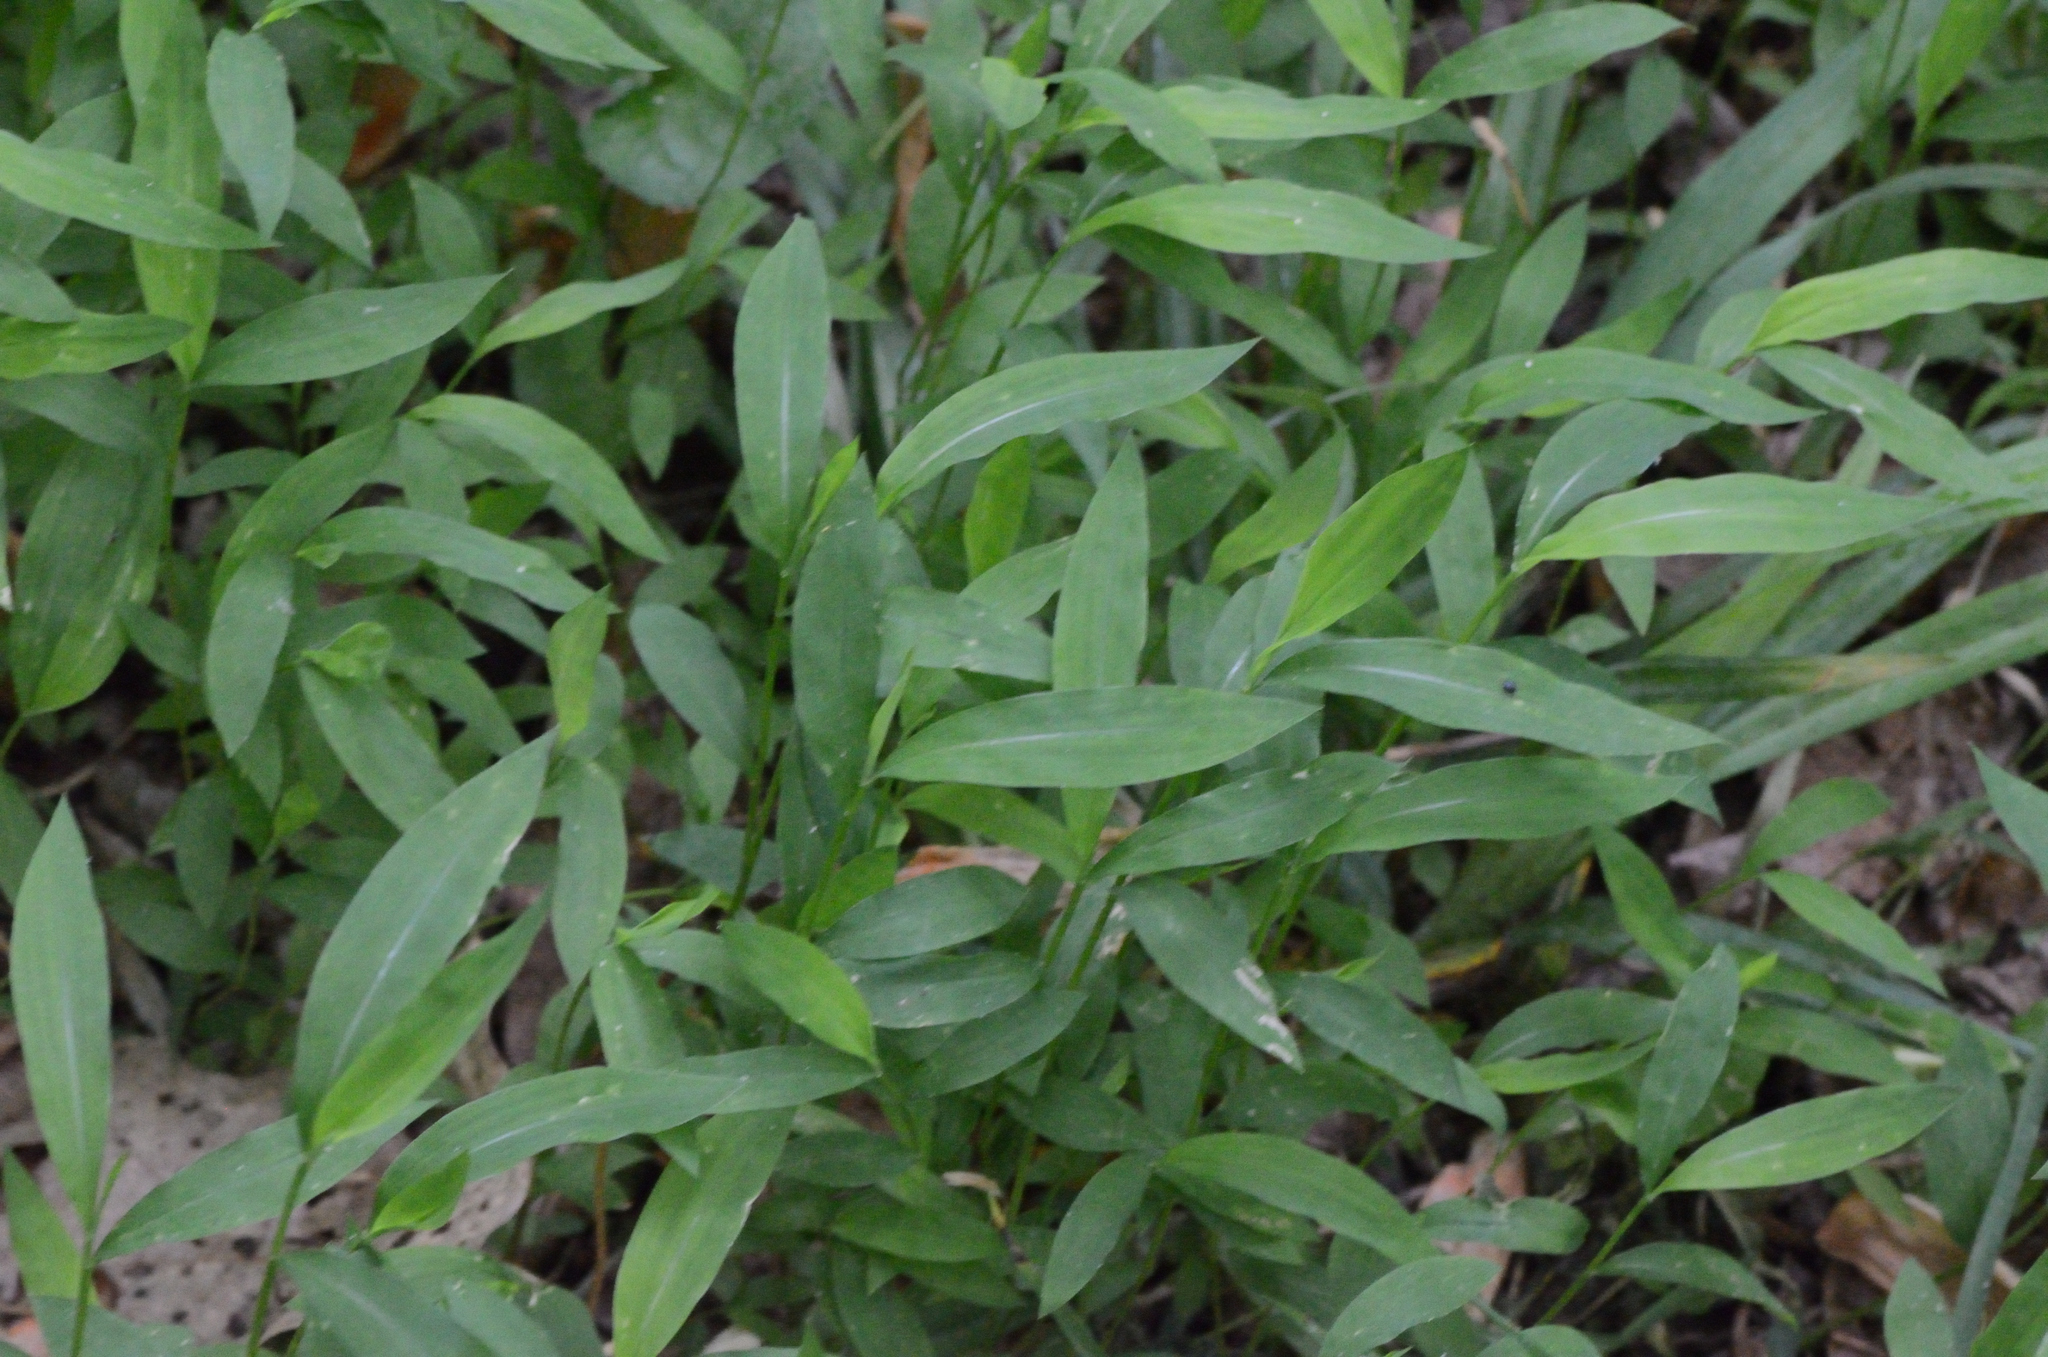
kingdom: Plantae
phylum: Tracheophyta
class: Liliopsida
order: Poales
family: Poaceae
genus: Microstegium
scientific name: Microstegium vimineum
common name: Japanese stiltgrass
